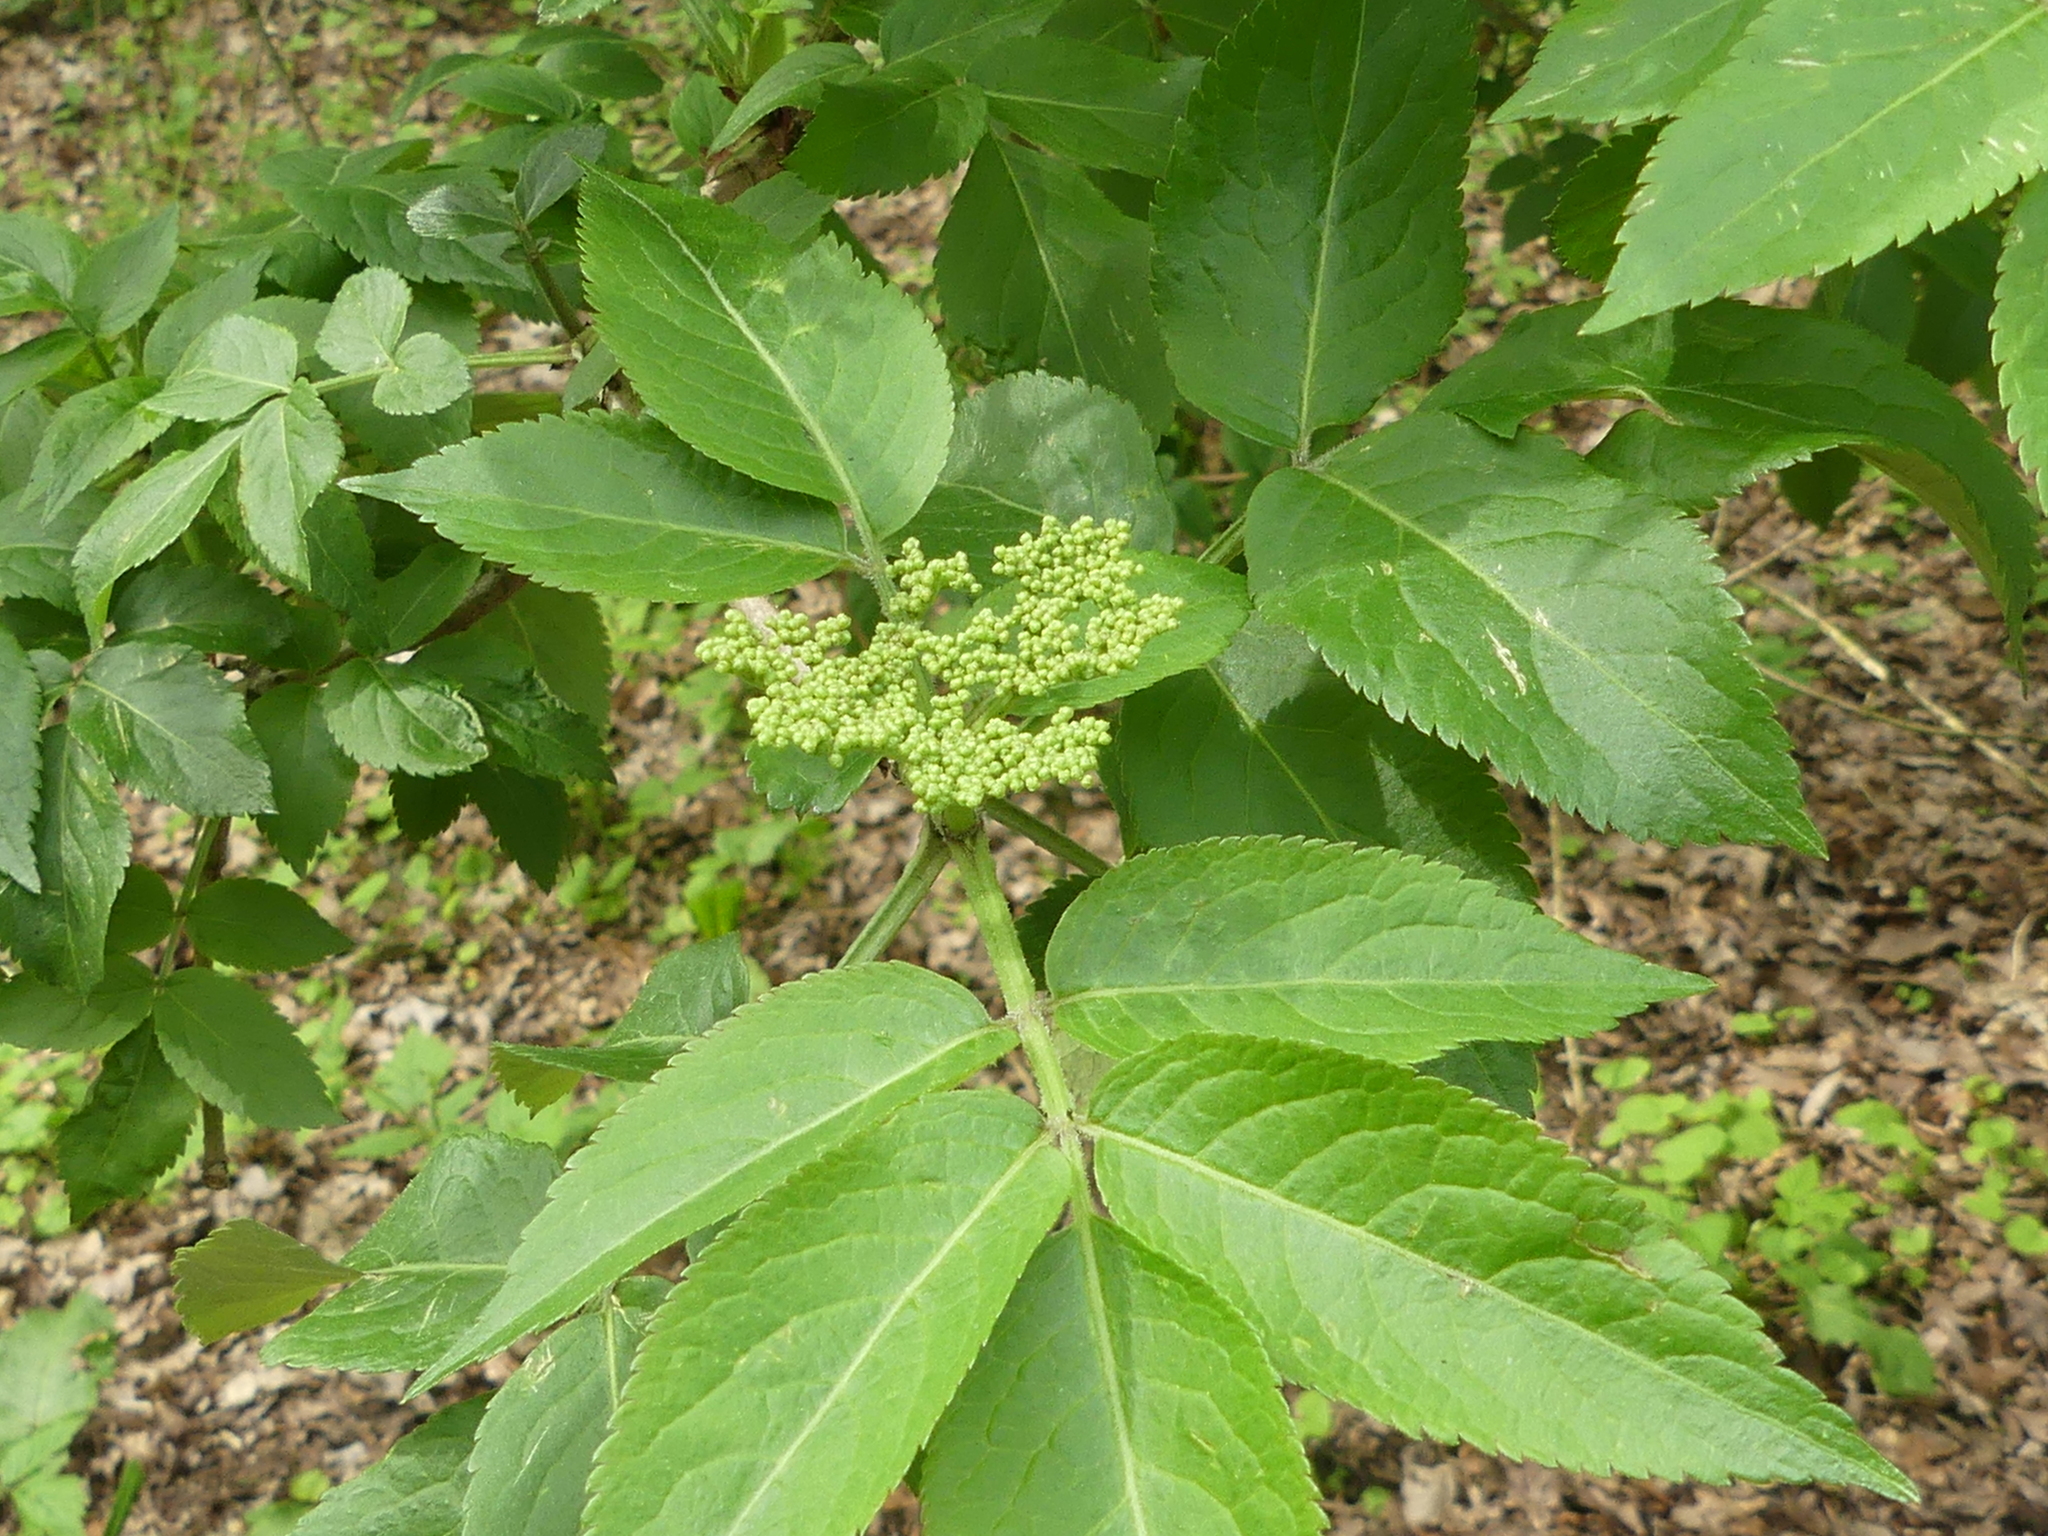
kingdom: Plantae
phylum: Tracheophyta
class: Magnoliopsida
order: Dipsacales
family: Viburnaceae
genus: Sambucus
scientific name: Sambucus nigra
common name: Elder
